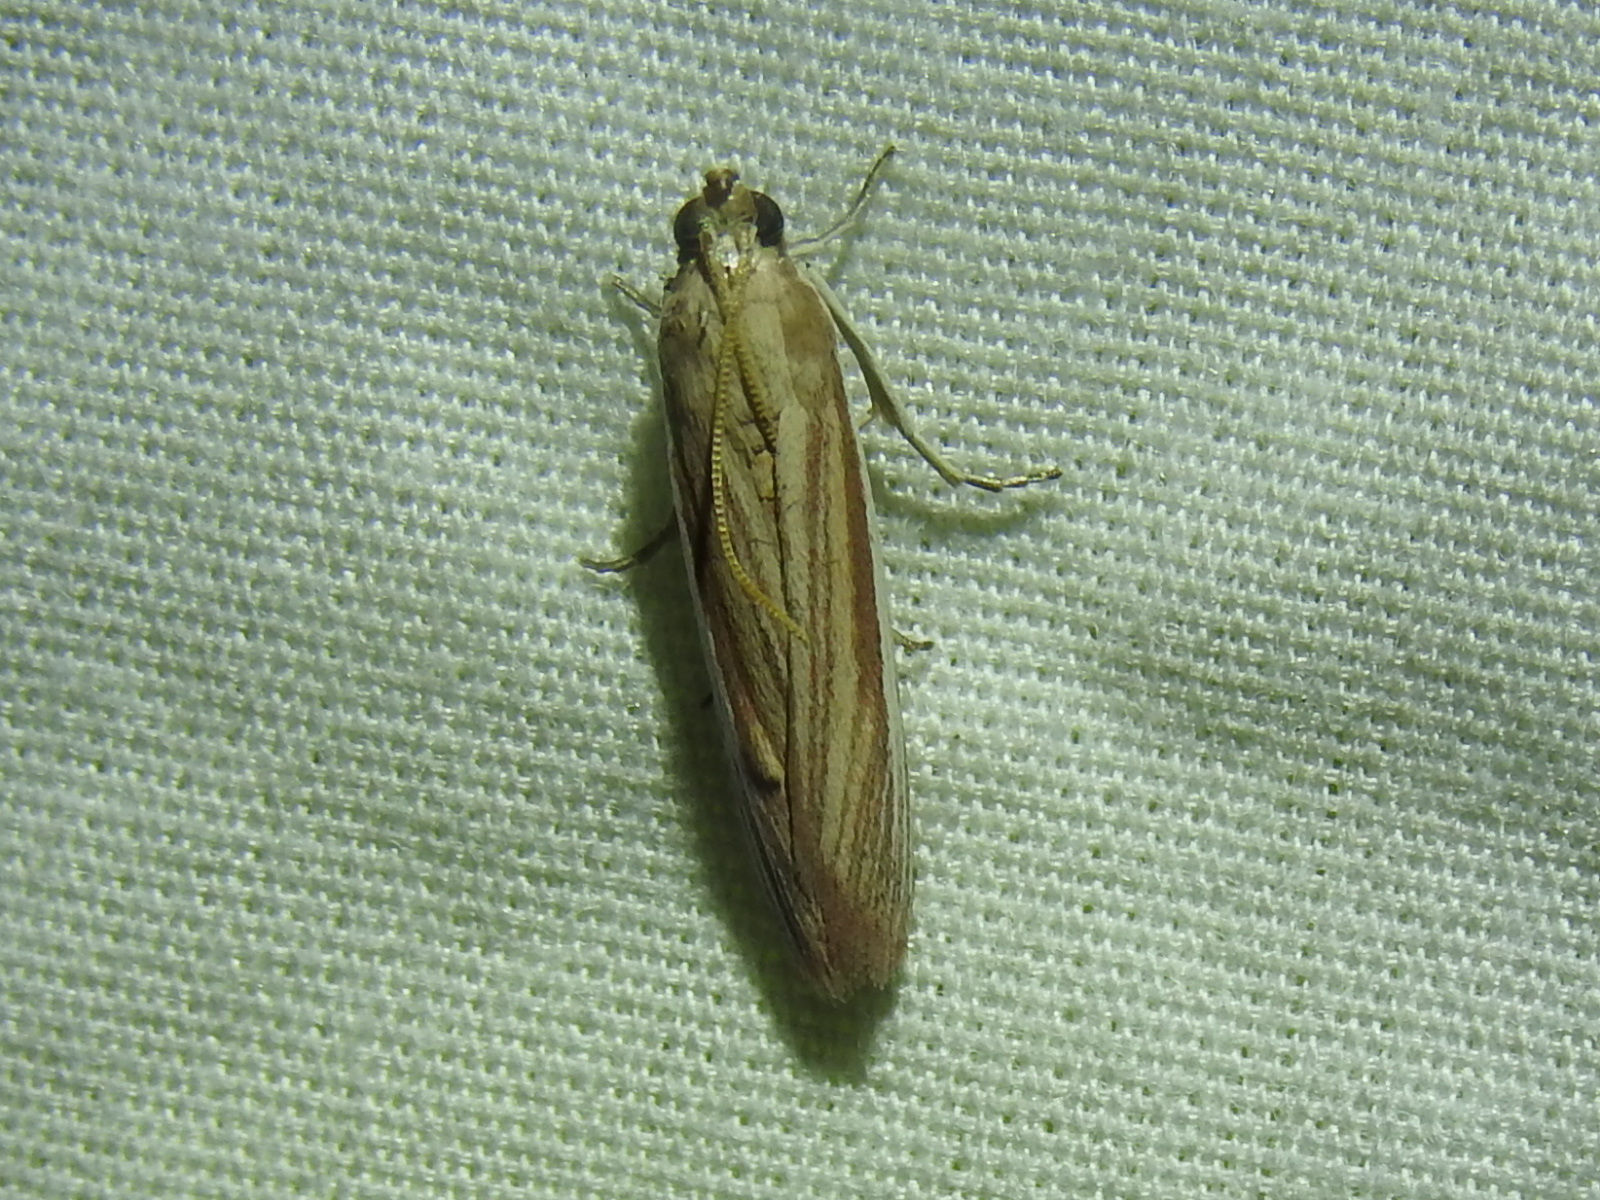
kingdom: Animalia
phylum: Arthropoda
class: Insecta
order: Lepidoptera
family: Pyralidae
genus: Anderida
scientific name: Anderida peorinella
